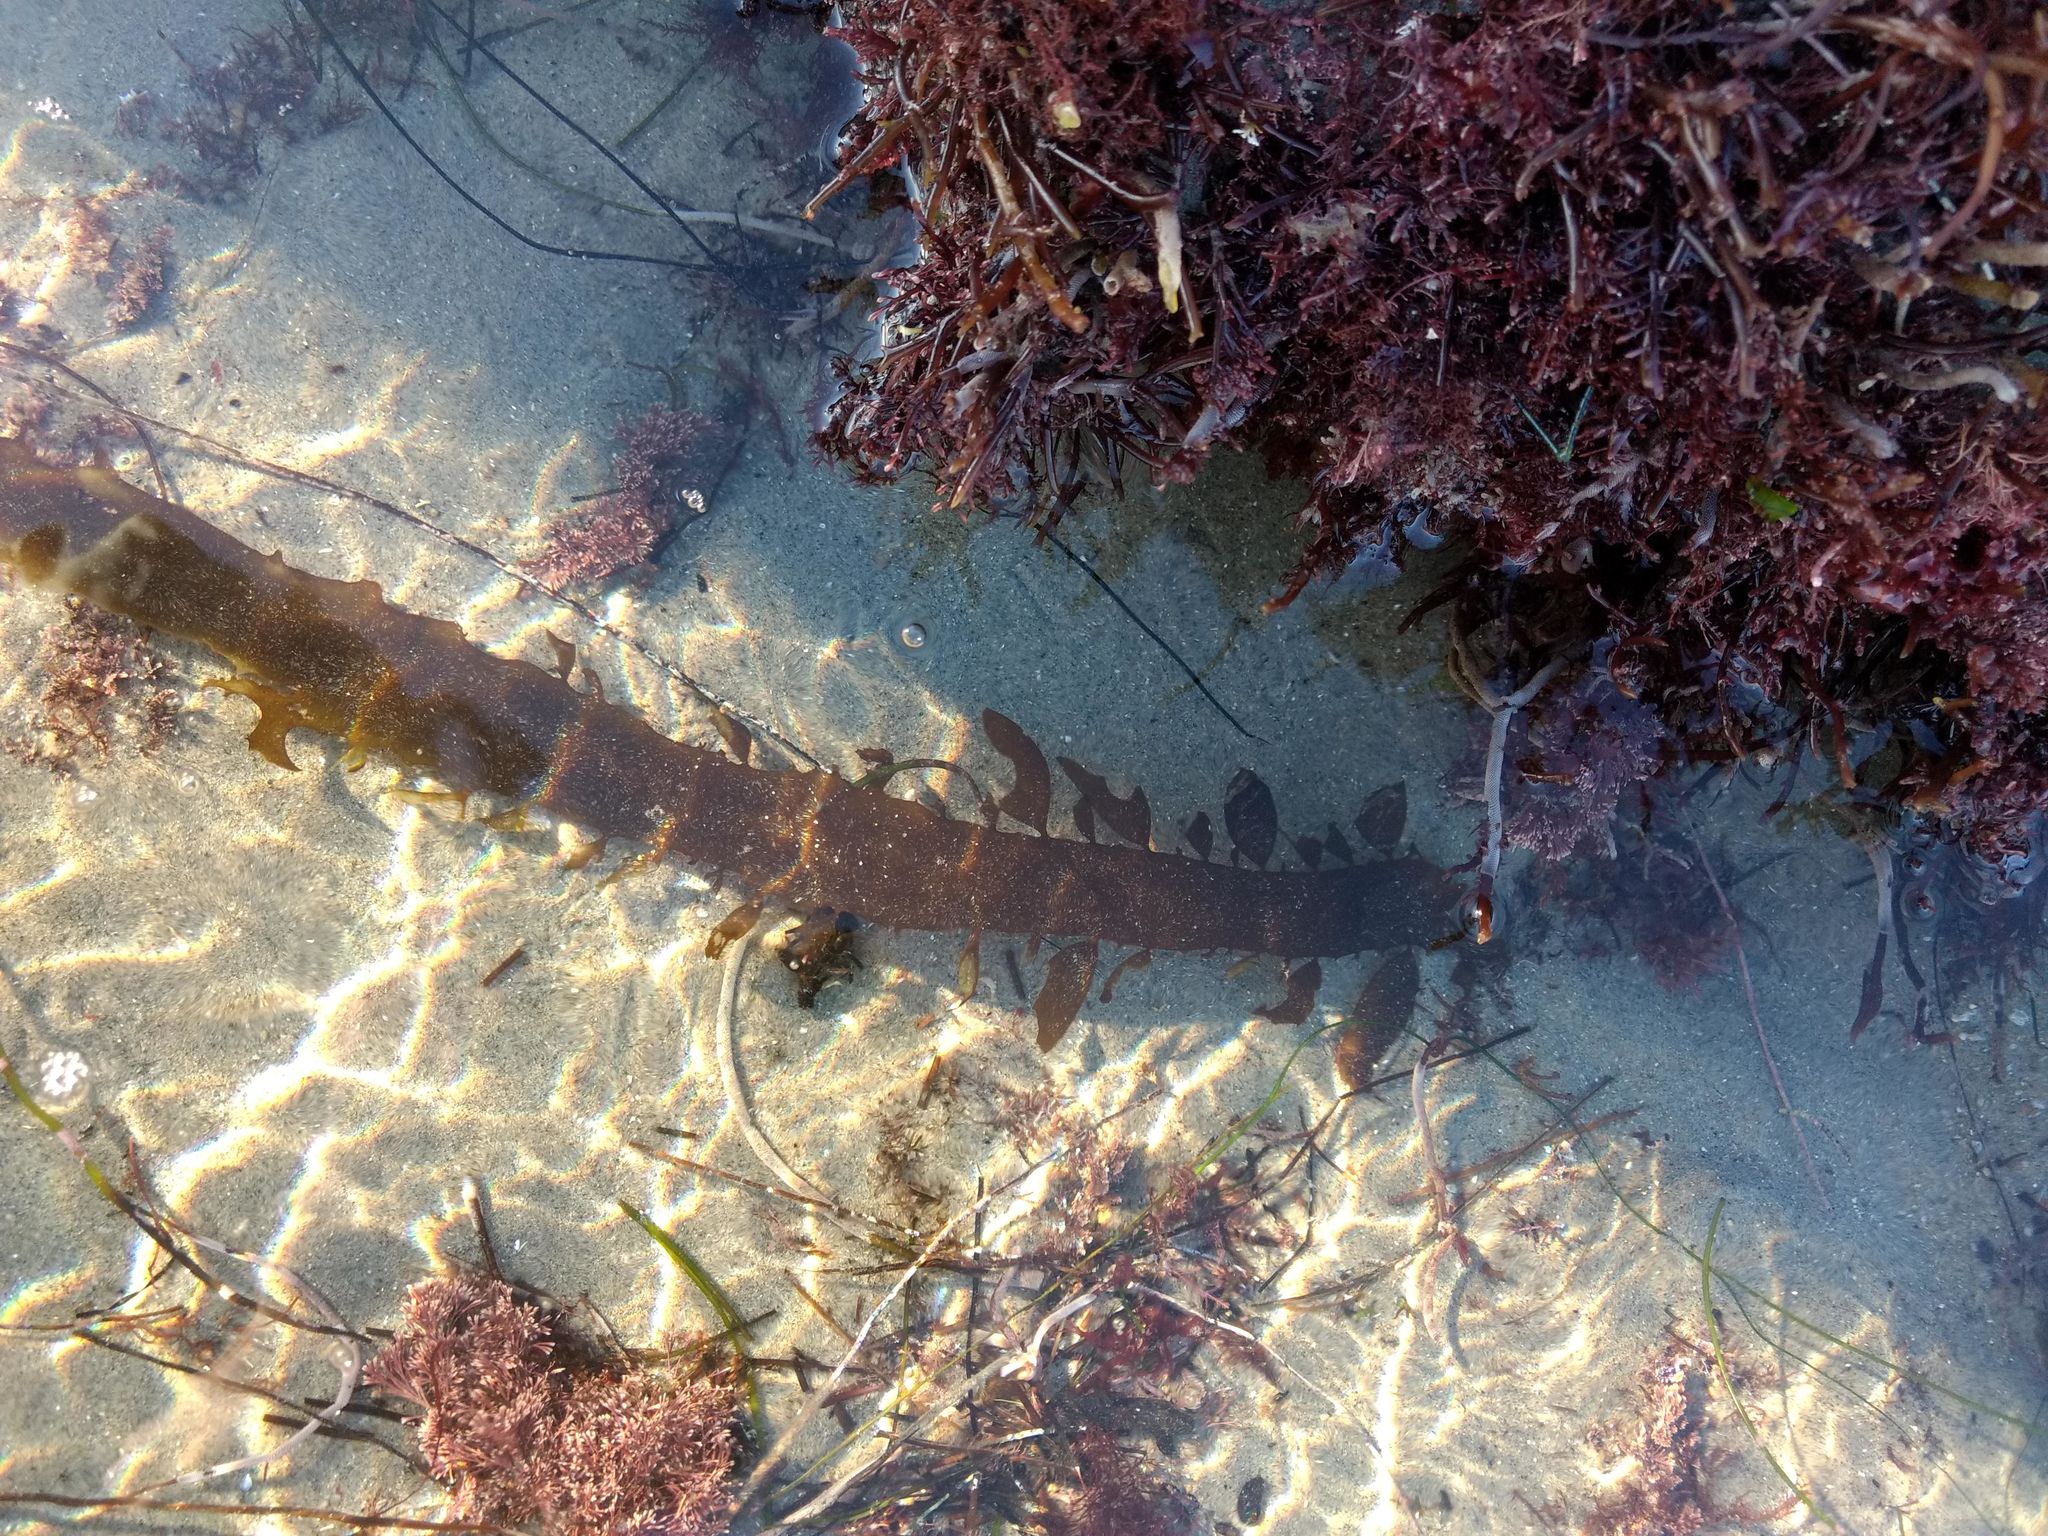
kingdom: Chromista
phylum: Ochrophyta
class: Phaeophyceae
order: Laminariales
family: Lessoniaceae
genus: Egregia
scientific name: Egregia menziesii
